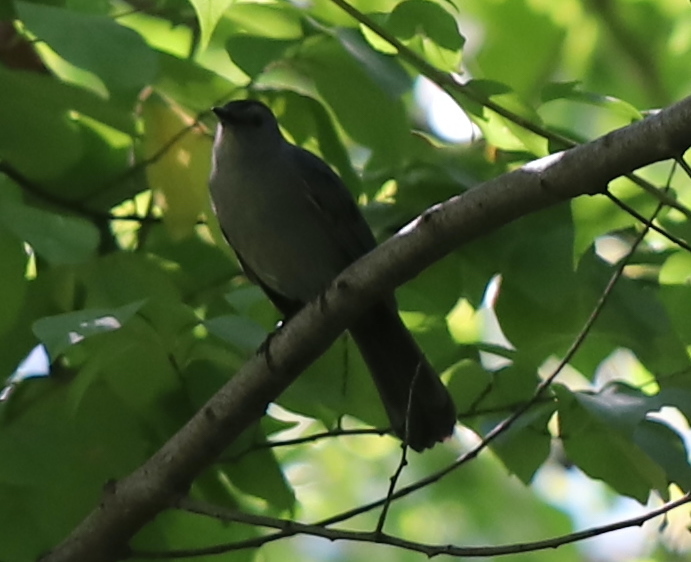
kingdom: Animalia
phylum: Chordata
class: Aves
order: Passeriformes
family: Mimidae
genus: Dumetella
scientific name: Dumetella carolinensis
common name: Gray catbird
